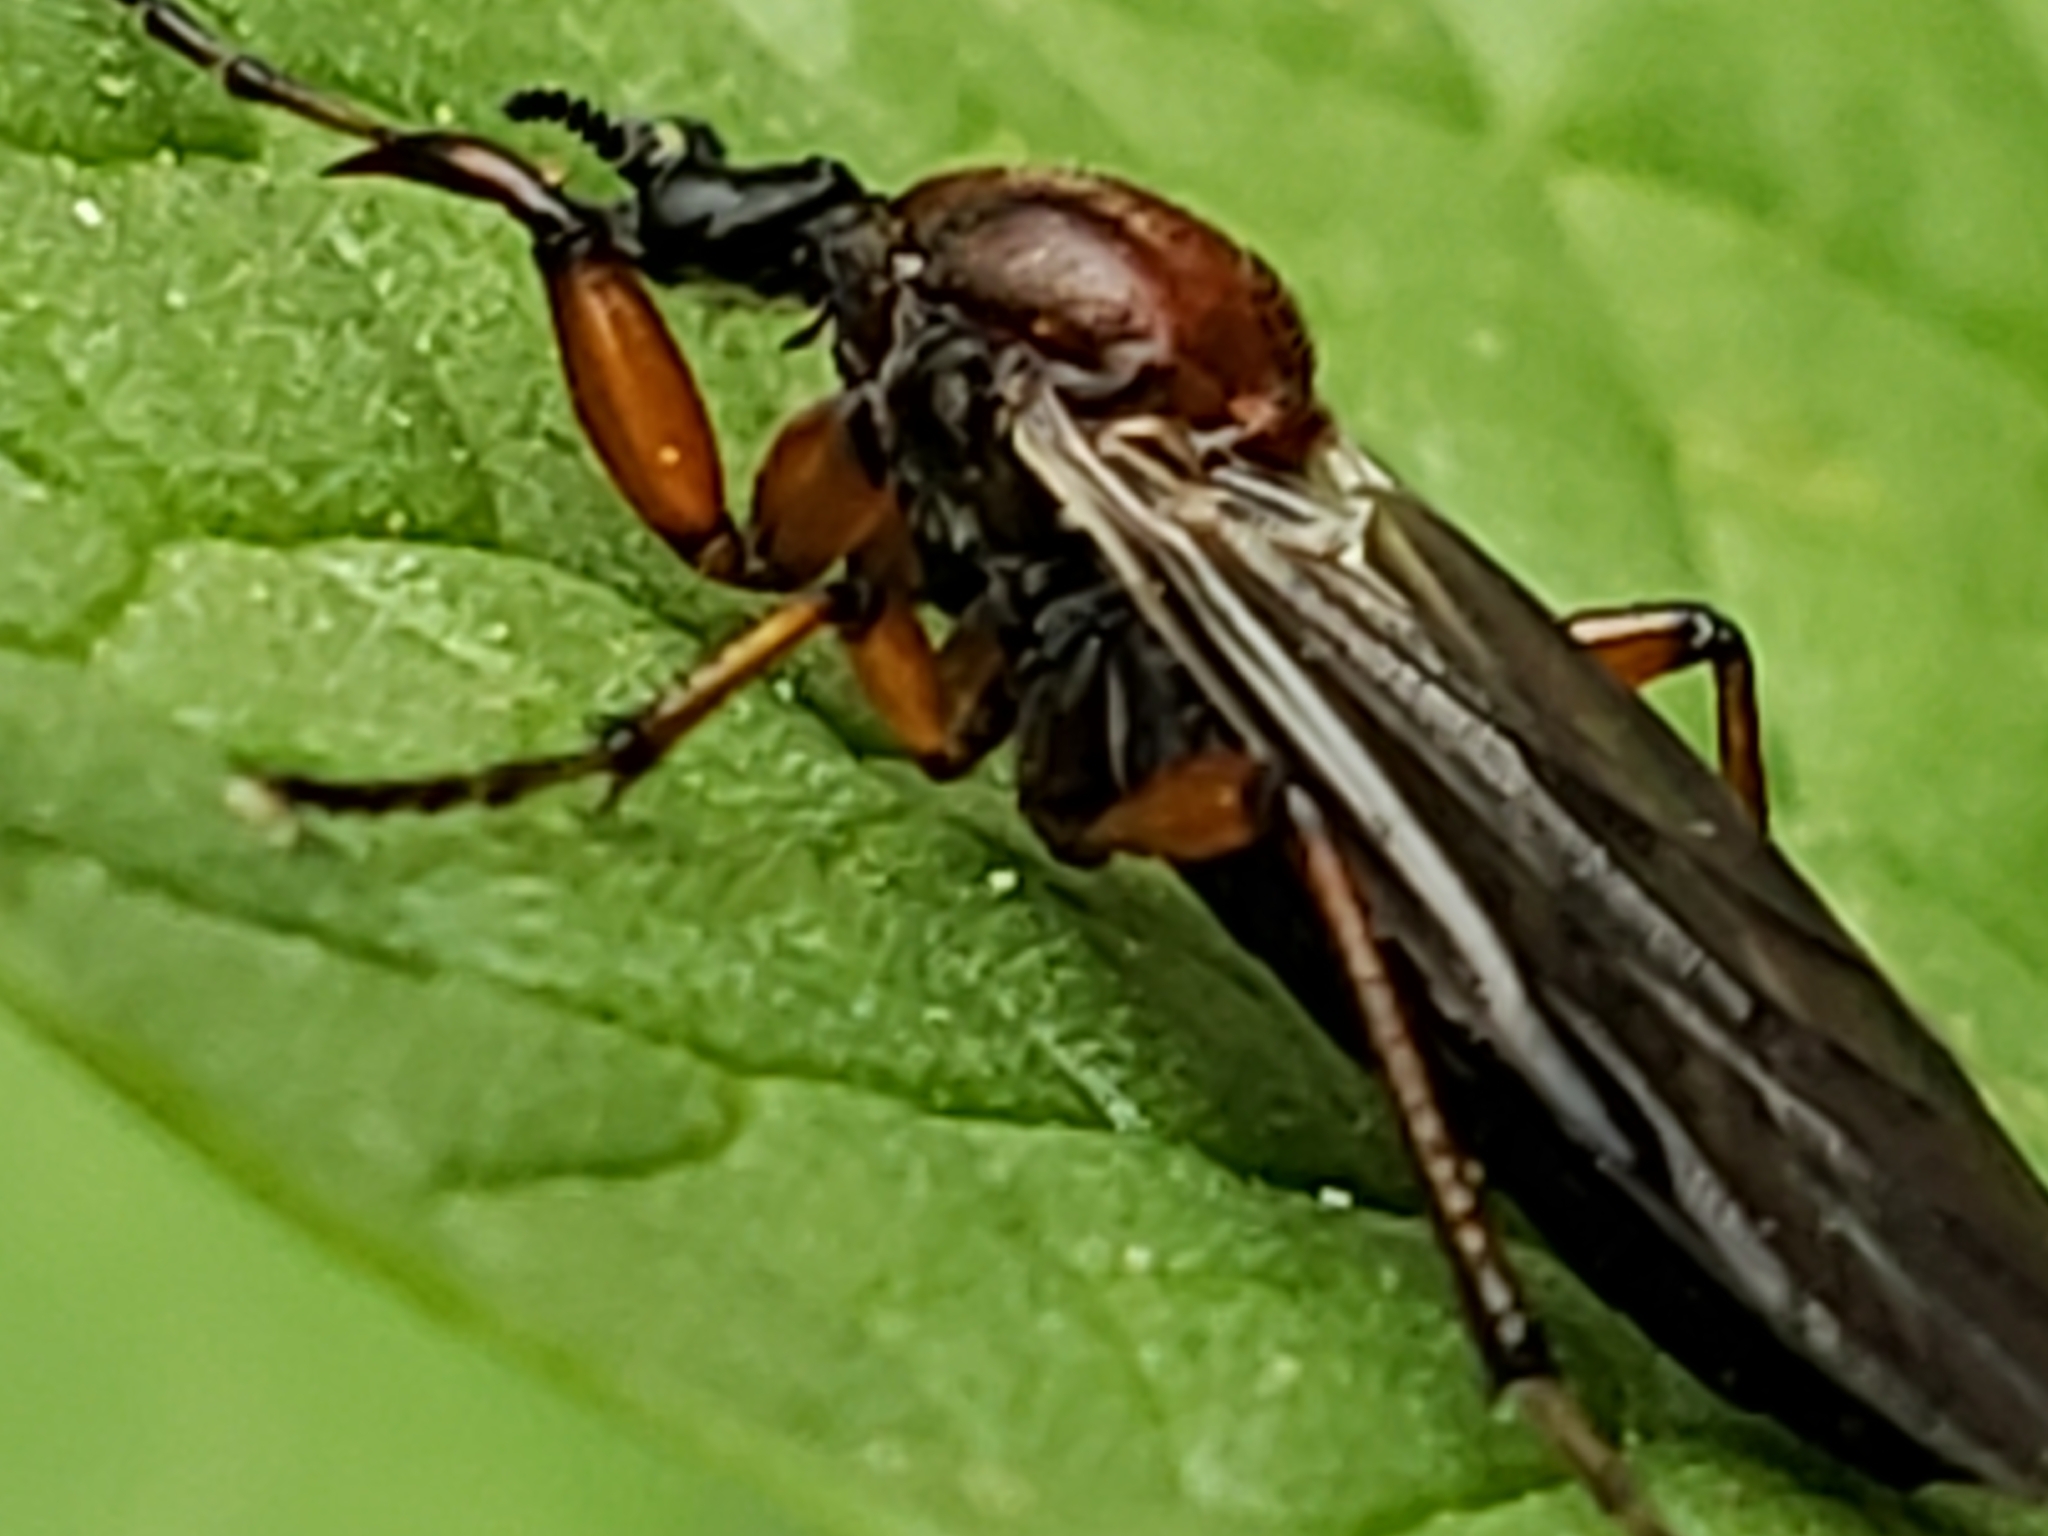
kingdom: Animalia
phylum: Arthropoda
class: Insecta
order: Diptera
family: Bibionidae
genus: Bibio
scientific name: Bibio articulatus
